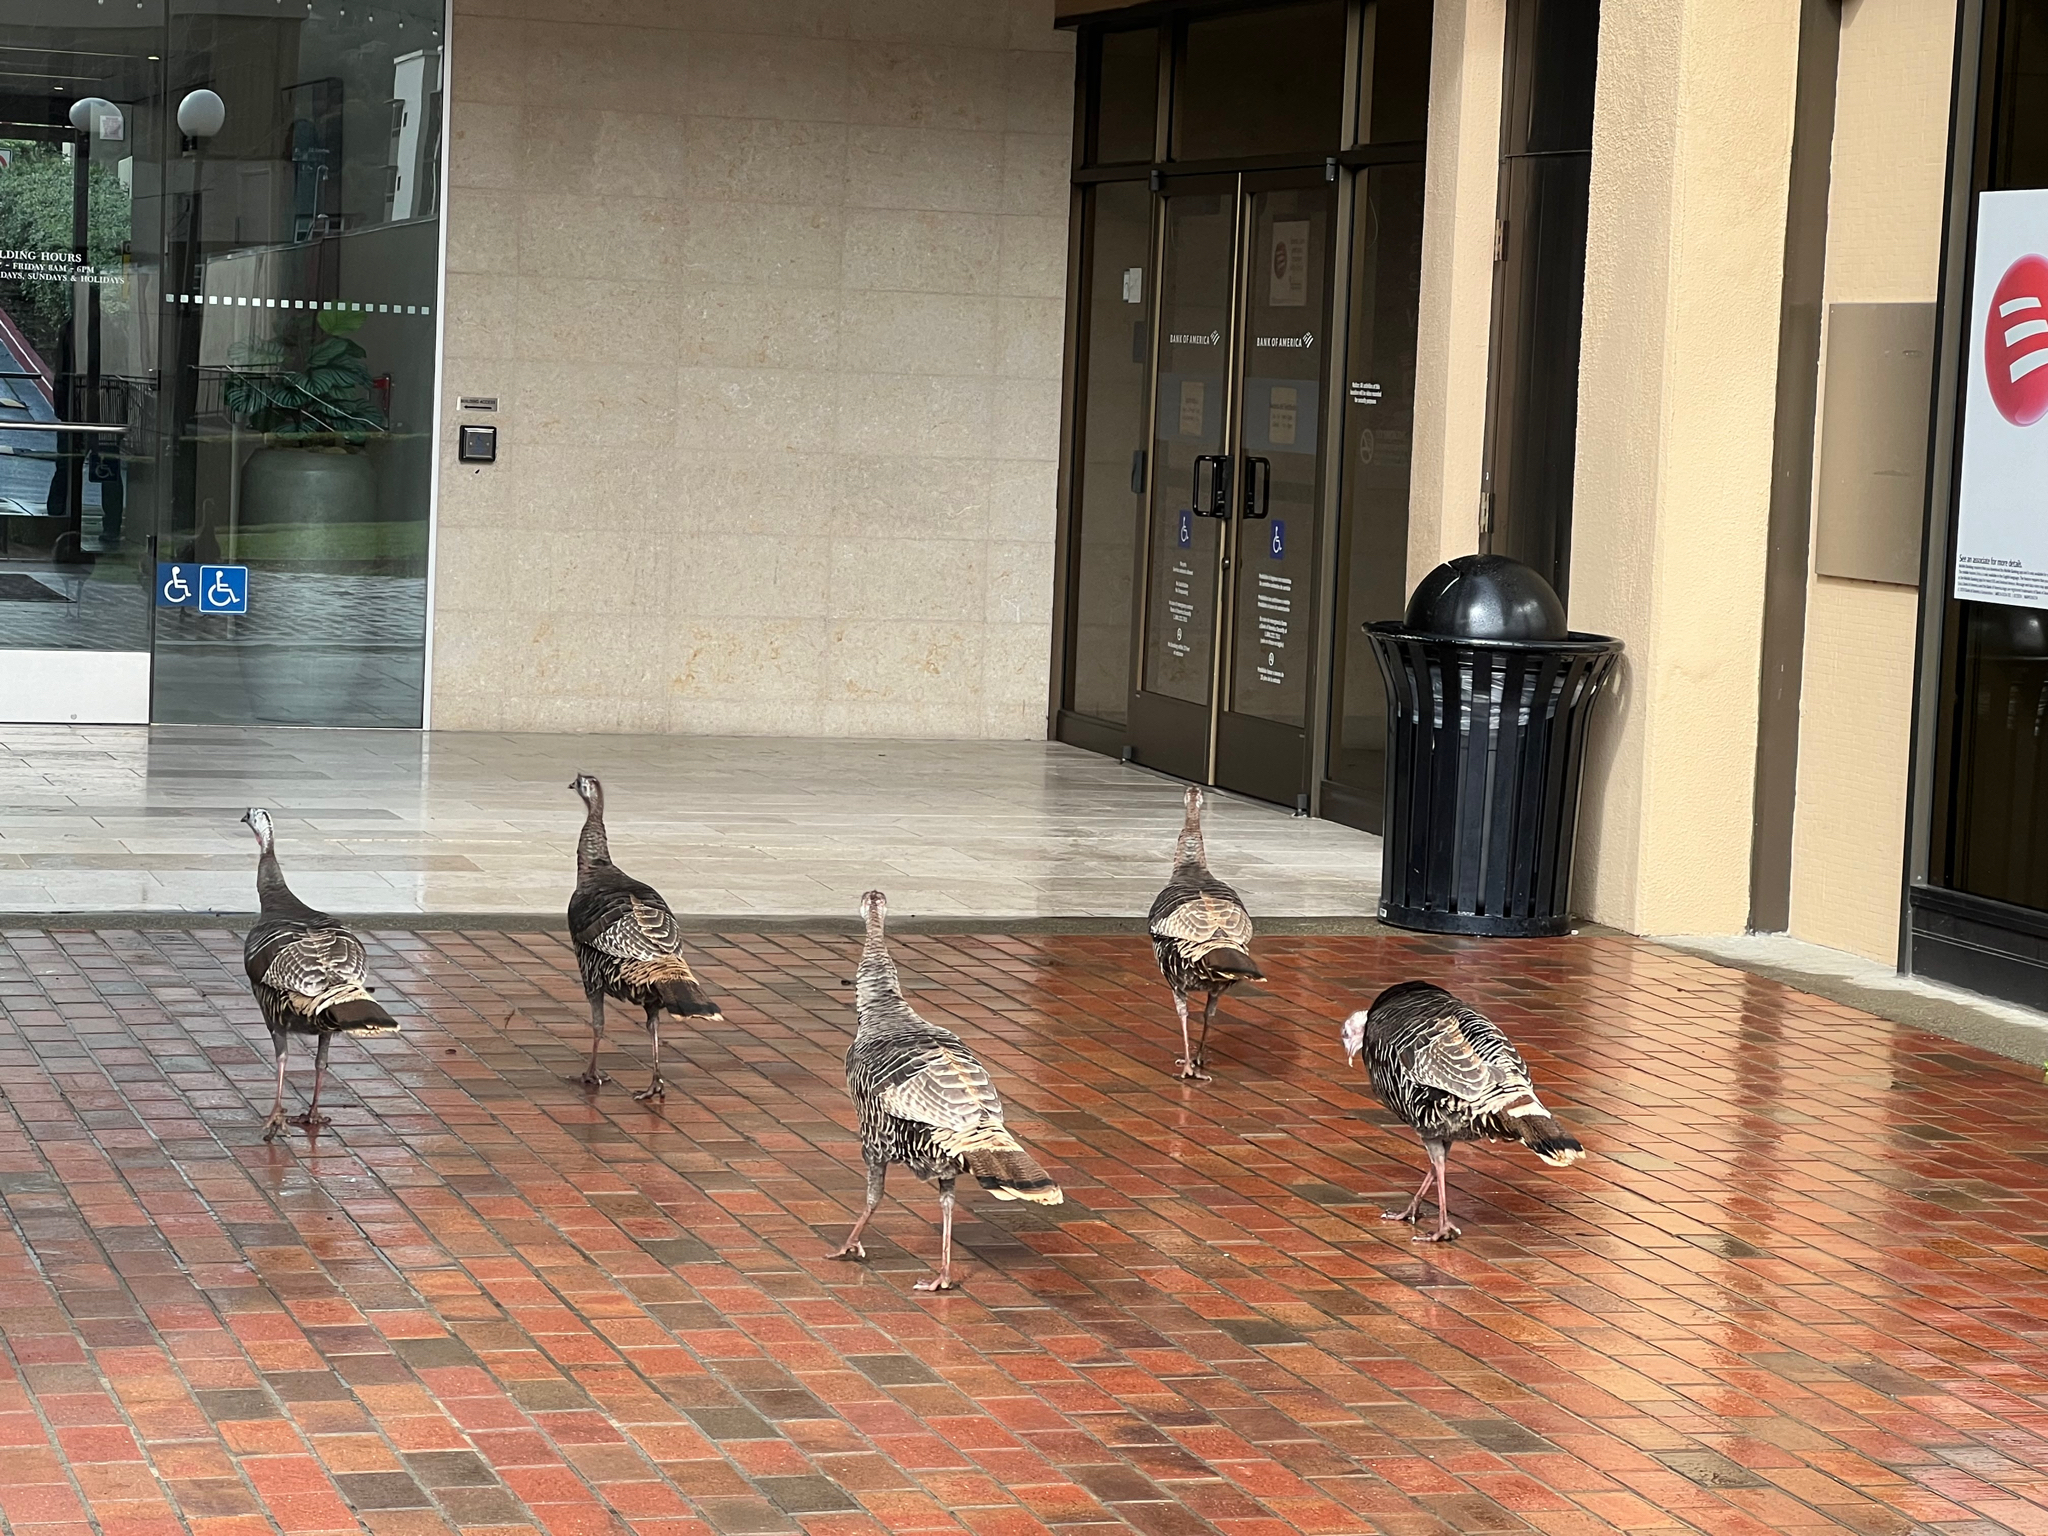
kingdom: Animalia
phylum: Chordata
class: Aves
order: Galliformes
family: Phasianidae
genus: Meleagris
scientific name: Meleagris gallopavo
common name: Wild turkey
